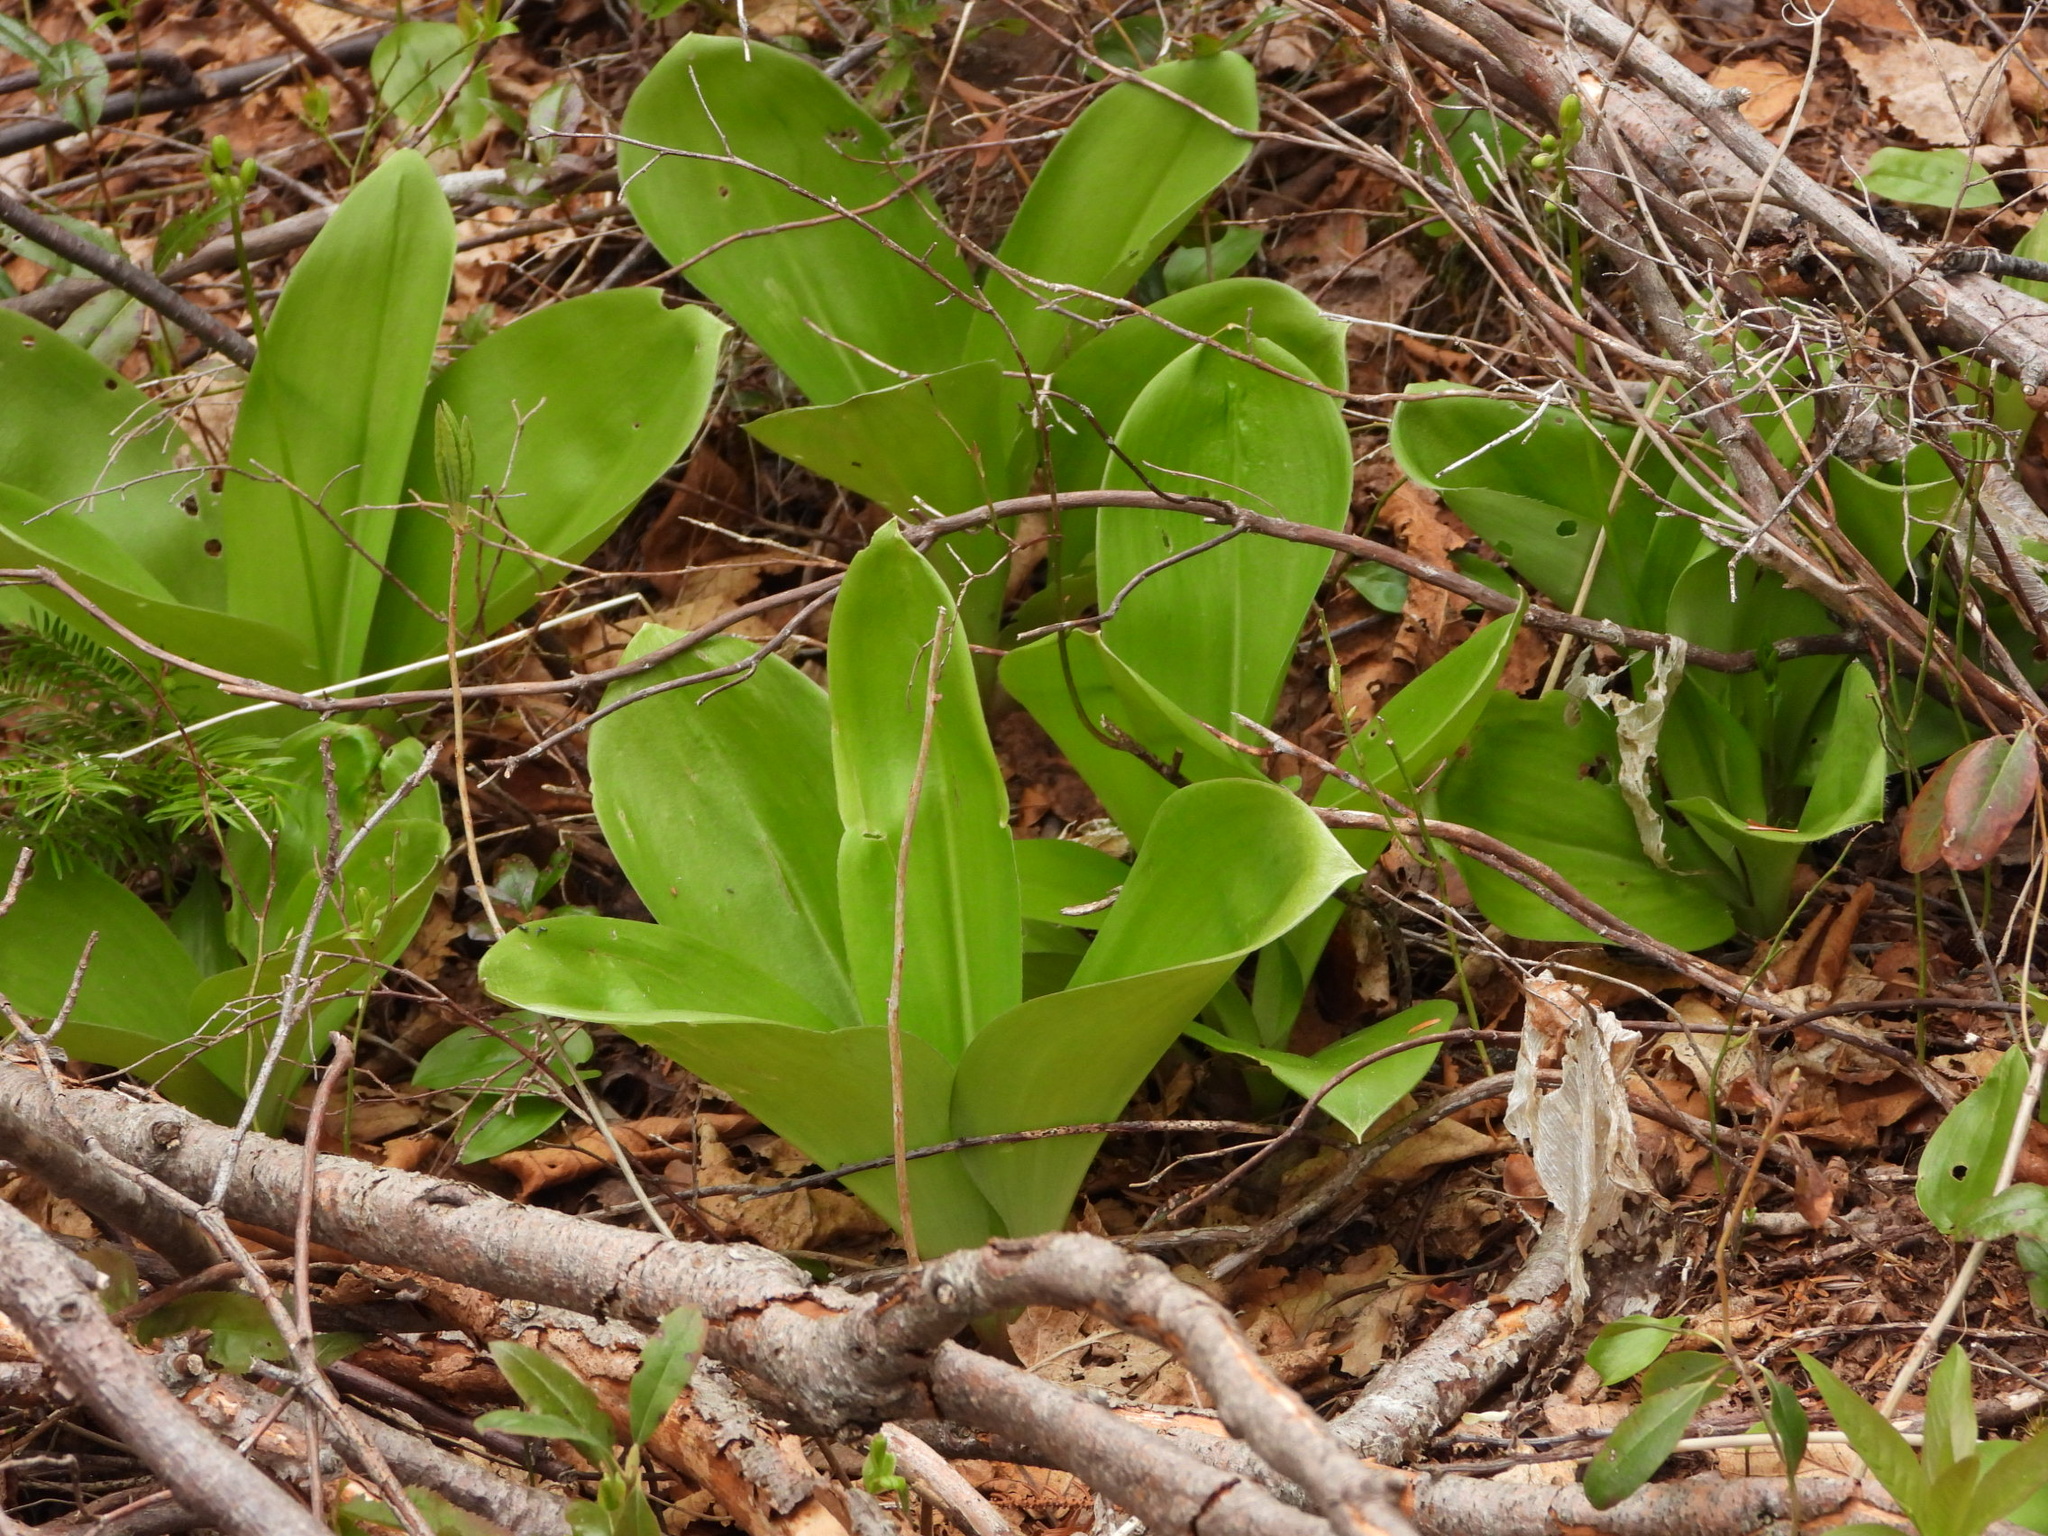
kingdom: Plantae
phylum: Tracheophyta
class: Liliopsida
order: Liliales
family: Liliaceae
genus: Clintonia
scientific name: Clintonia borealis
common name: Yellow clintonia
